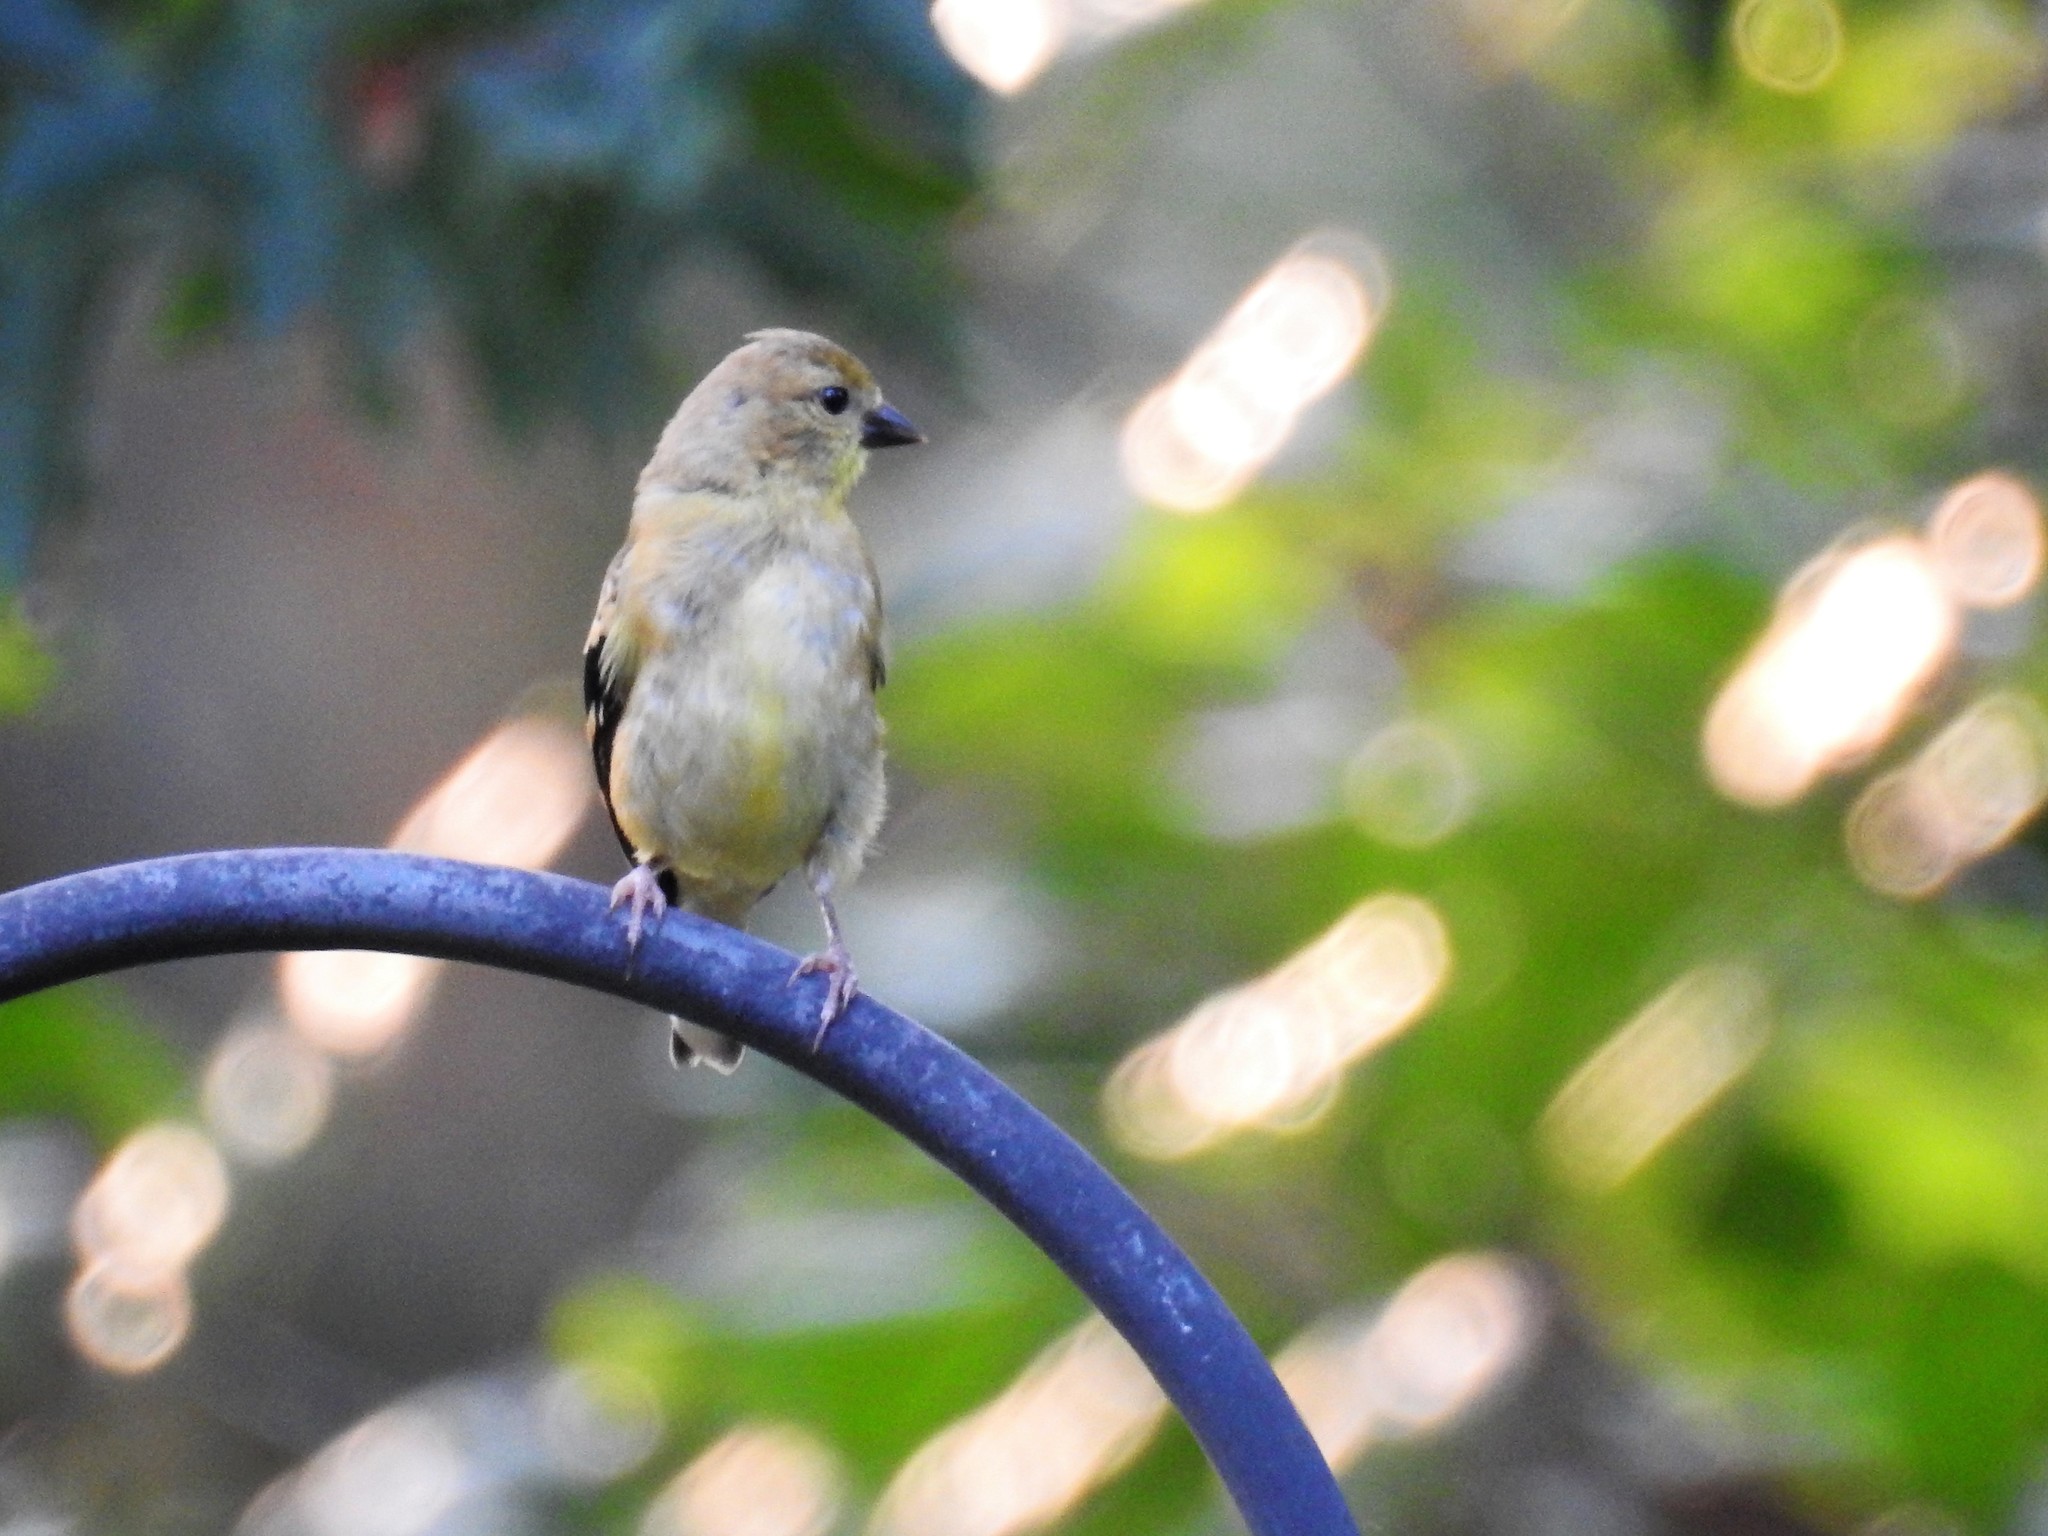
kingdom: Animalia
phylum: Chordata
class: Aves
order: Passeriformes
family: Fringillidae
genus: Spinus
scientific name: Spinus tristis
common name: American goldfinch
